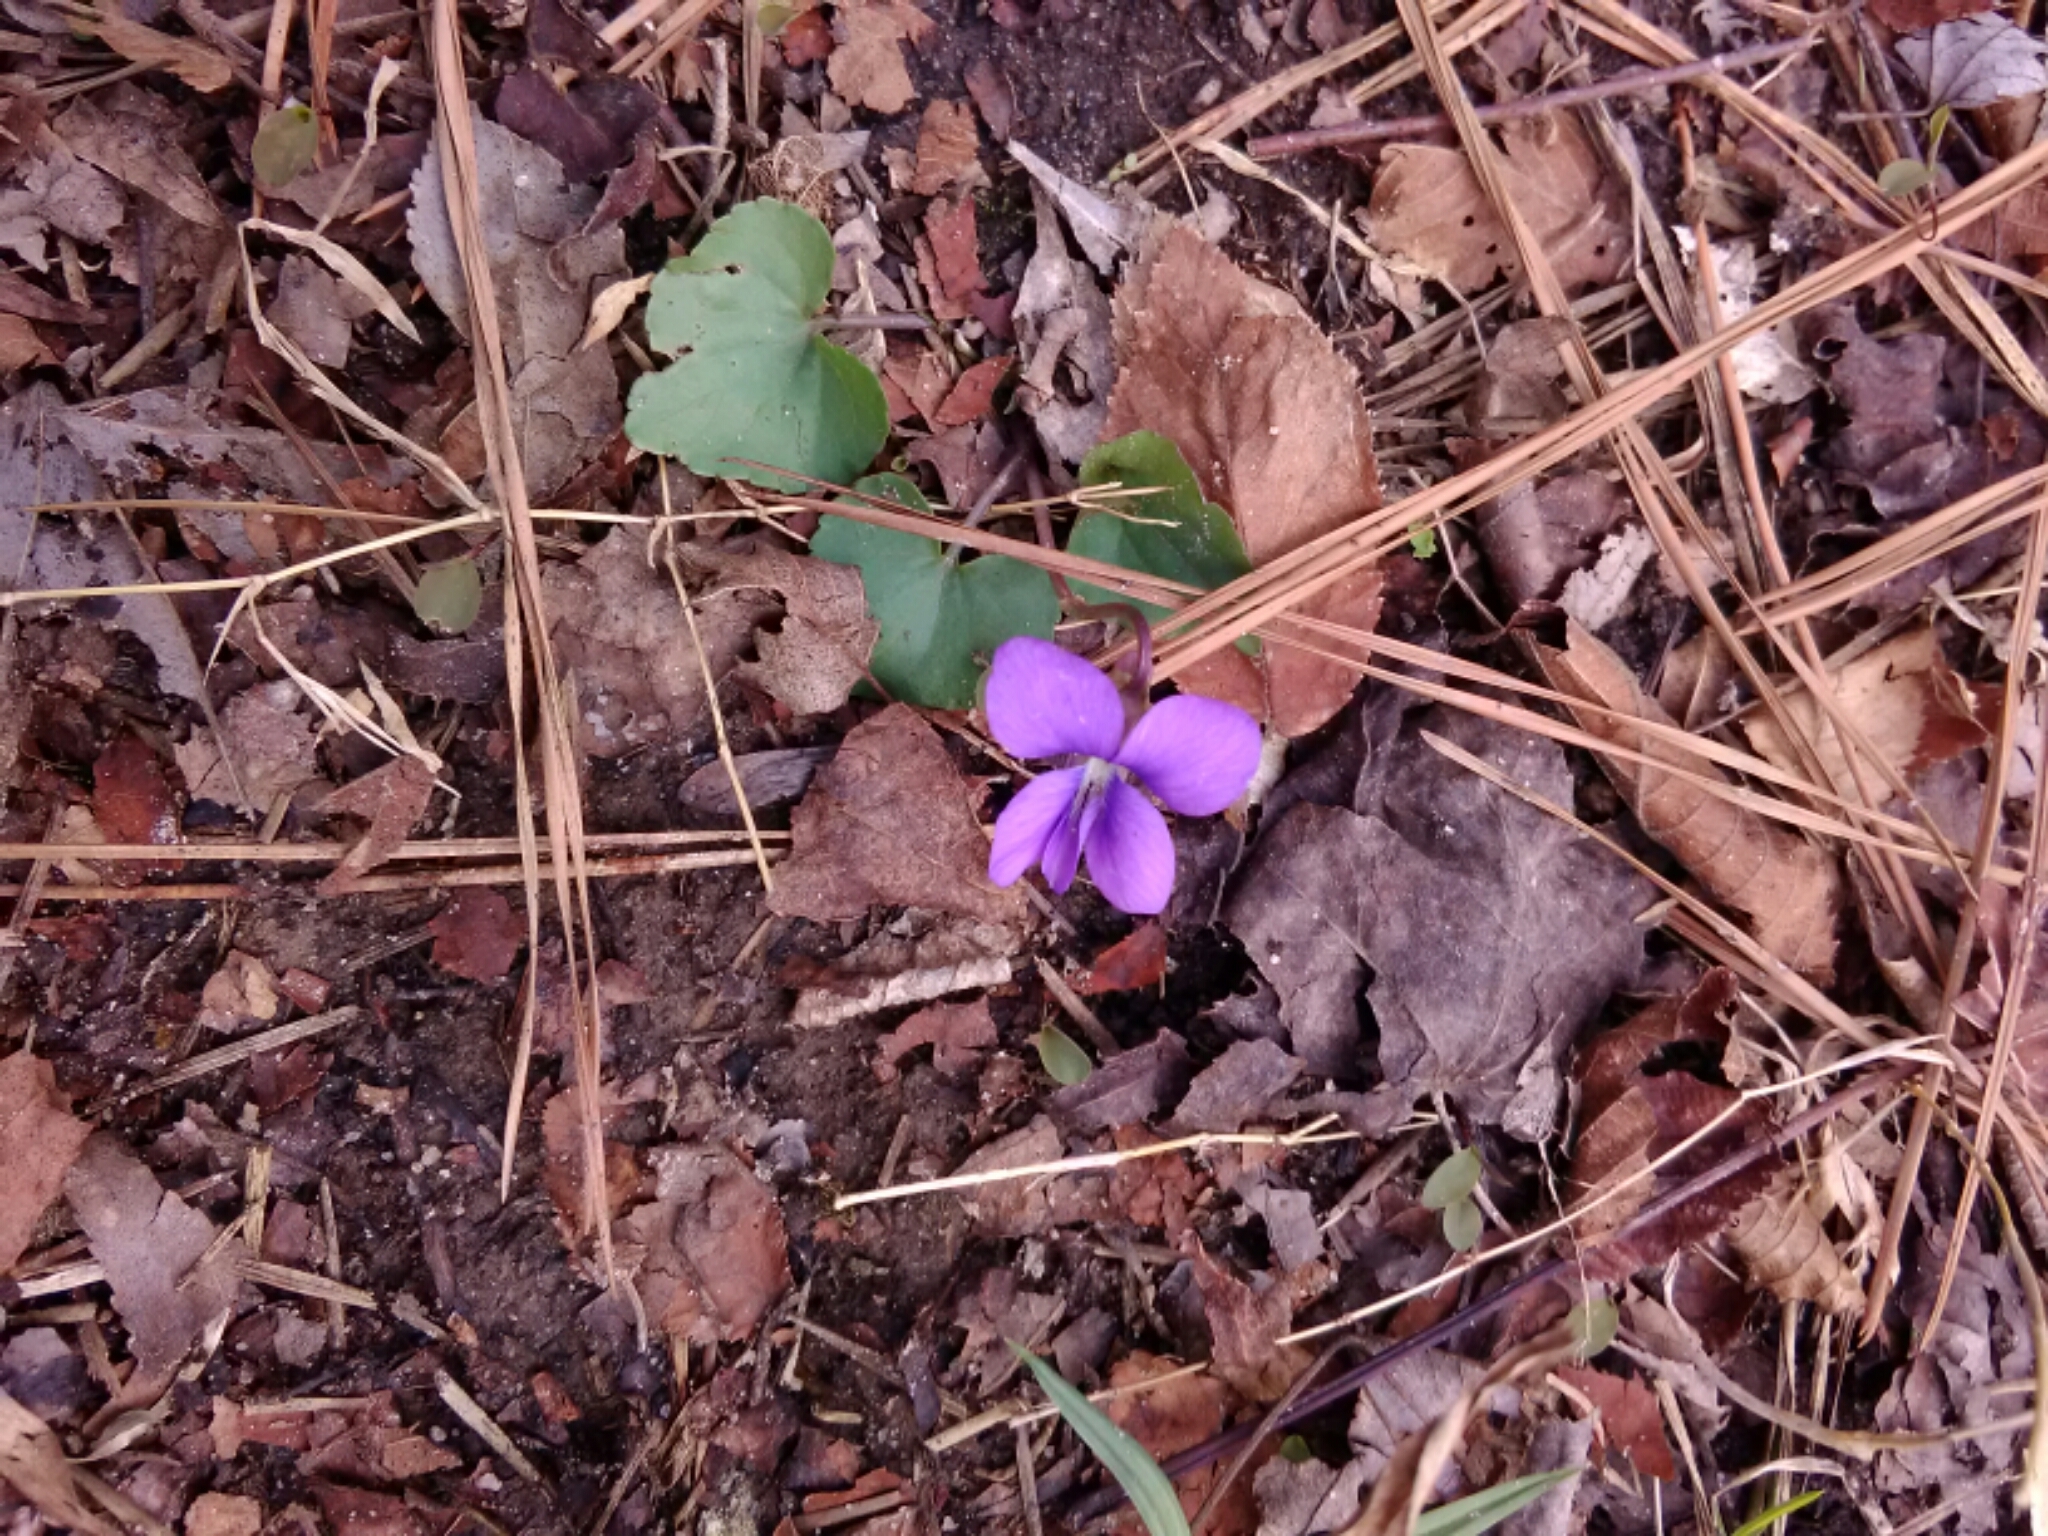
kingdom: Plantae
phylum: Tracheophyta
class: Magnoliopsida
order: Malpighiales
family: Violaceae
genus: Viola
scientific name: Viola sororia
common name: Dooryard violet
